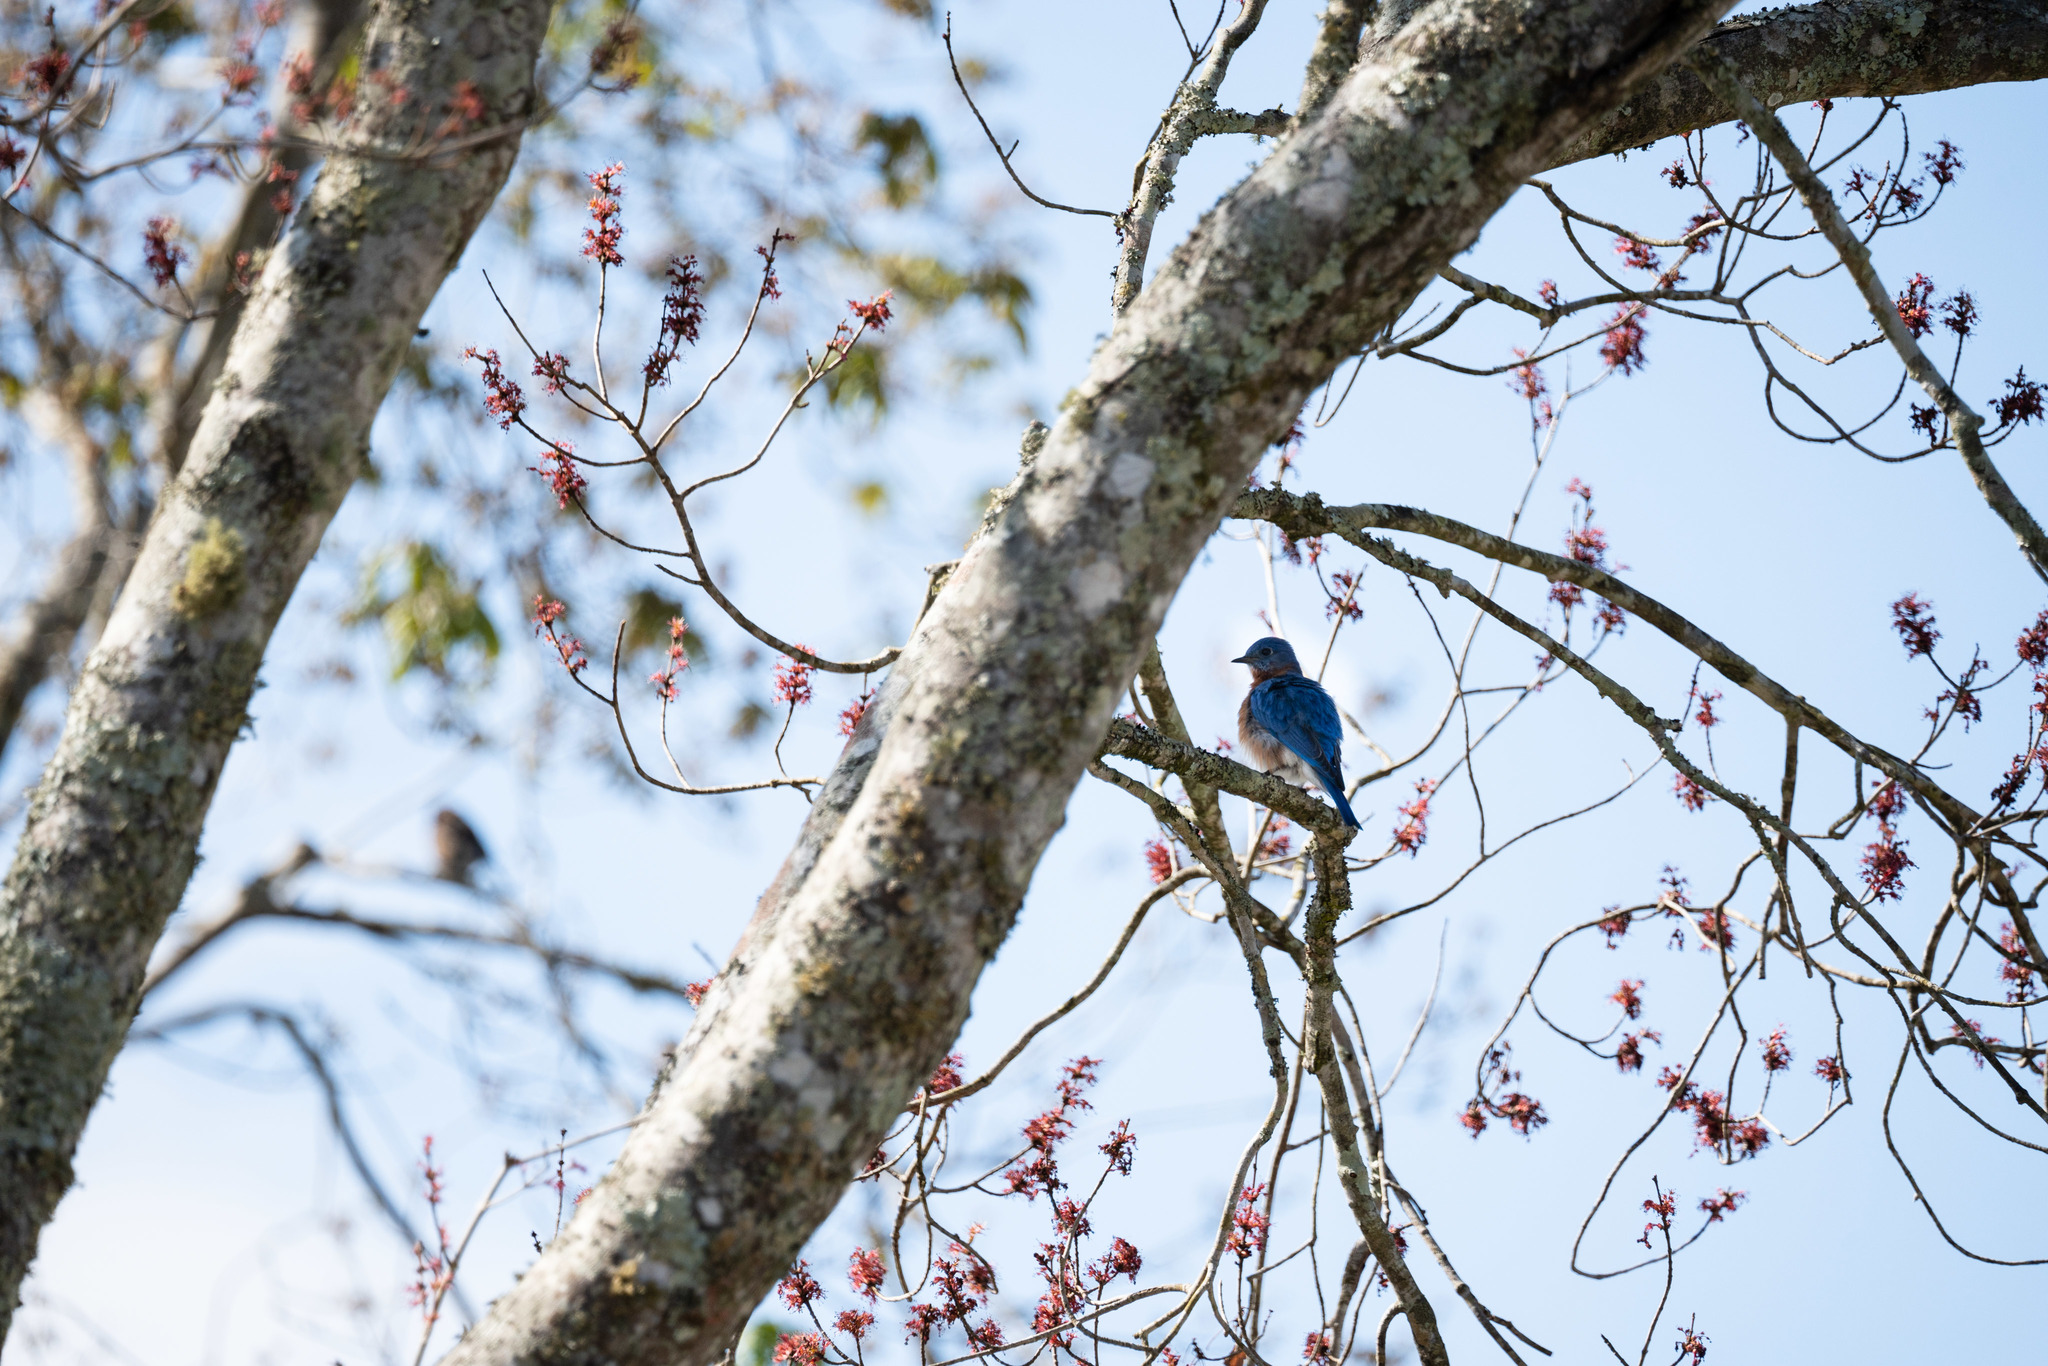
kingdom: Animalia
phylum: Chordata
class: Aves
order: Passeriformes
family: Turdidae
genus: Sialia
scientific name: Sialia sialis
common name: Eastern bluebird
